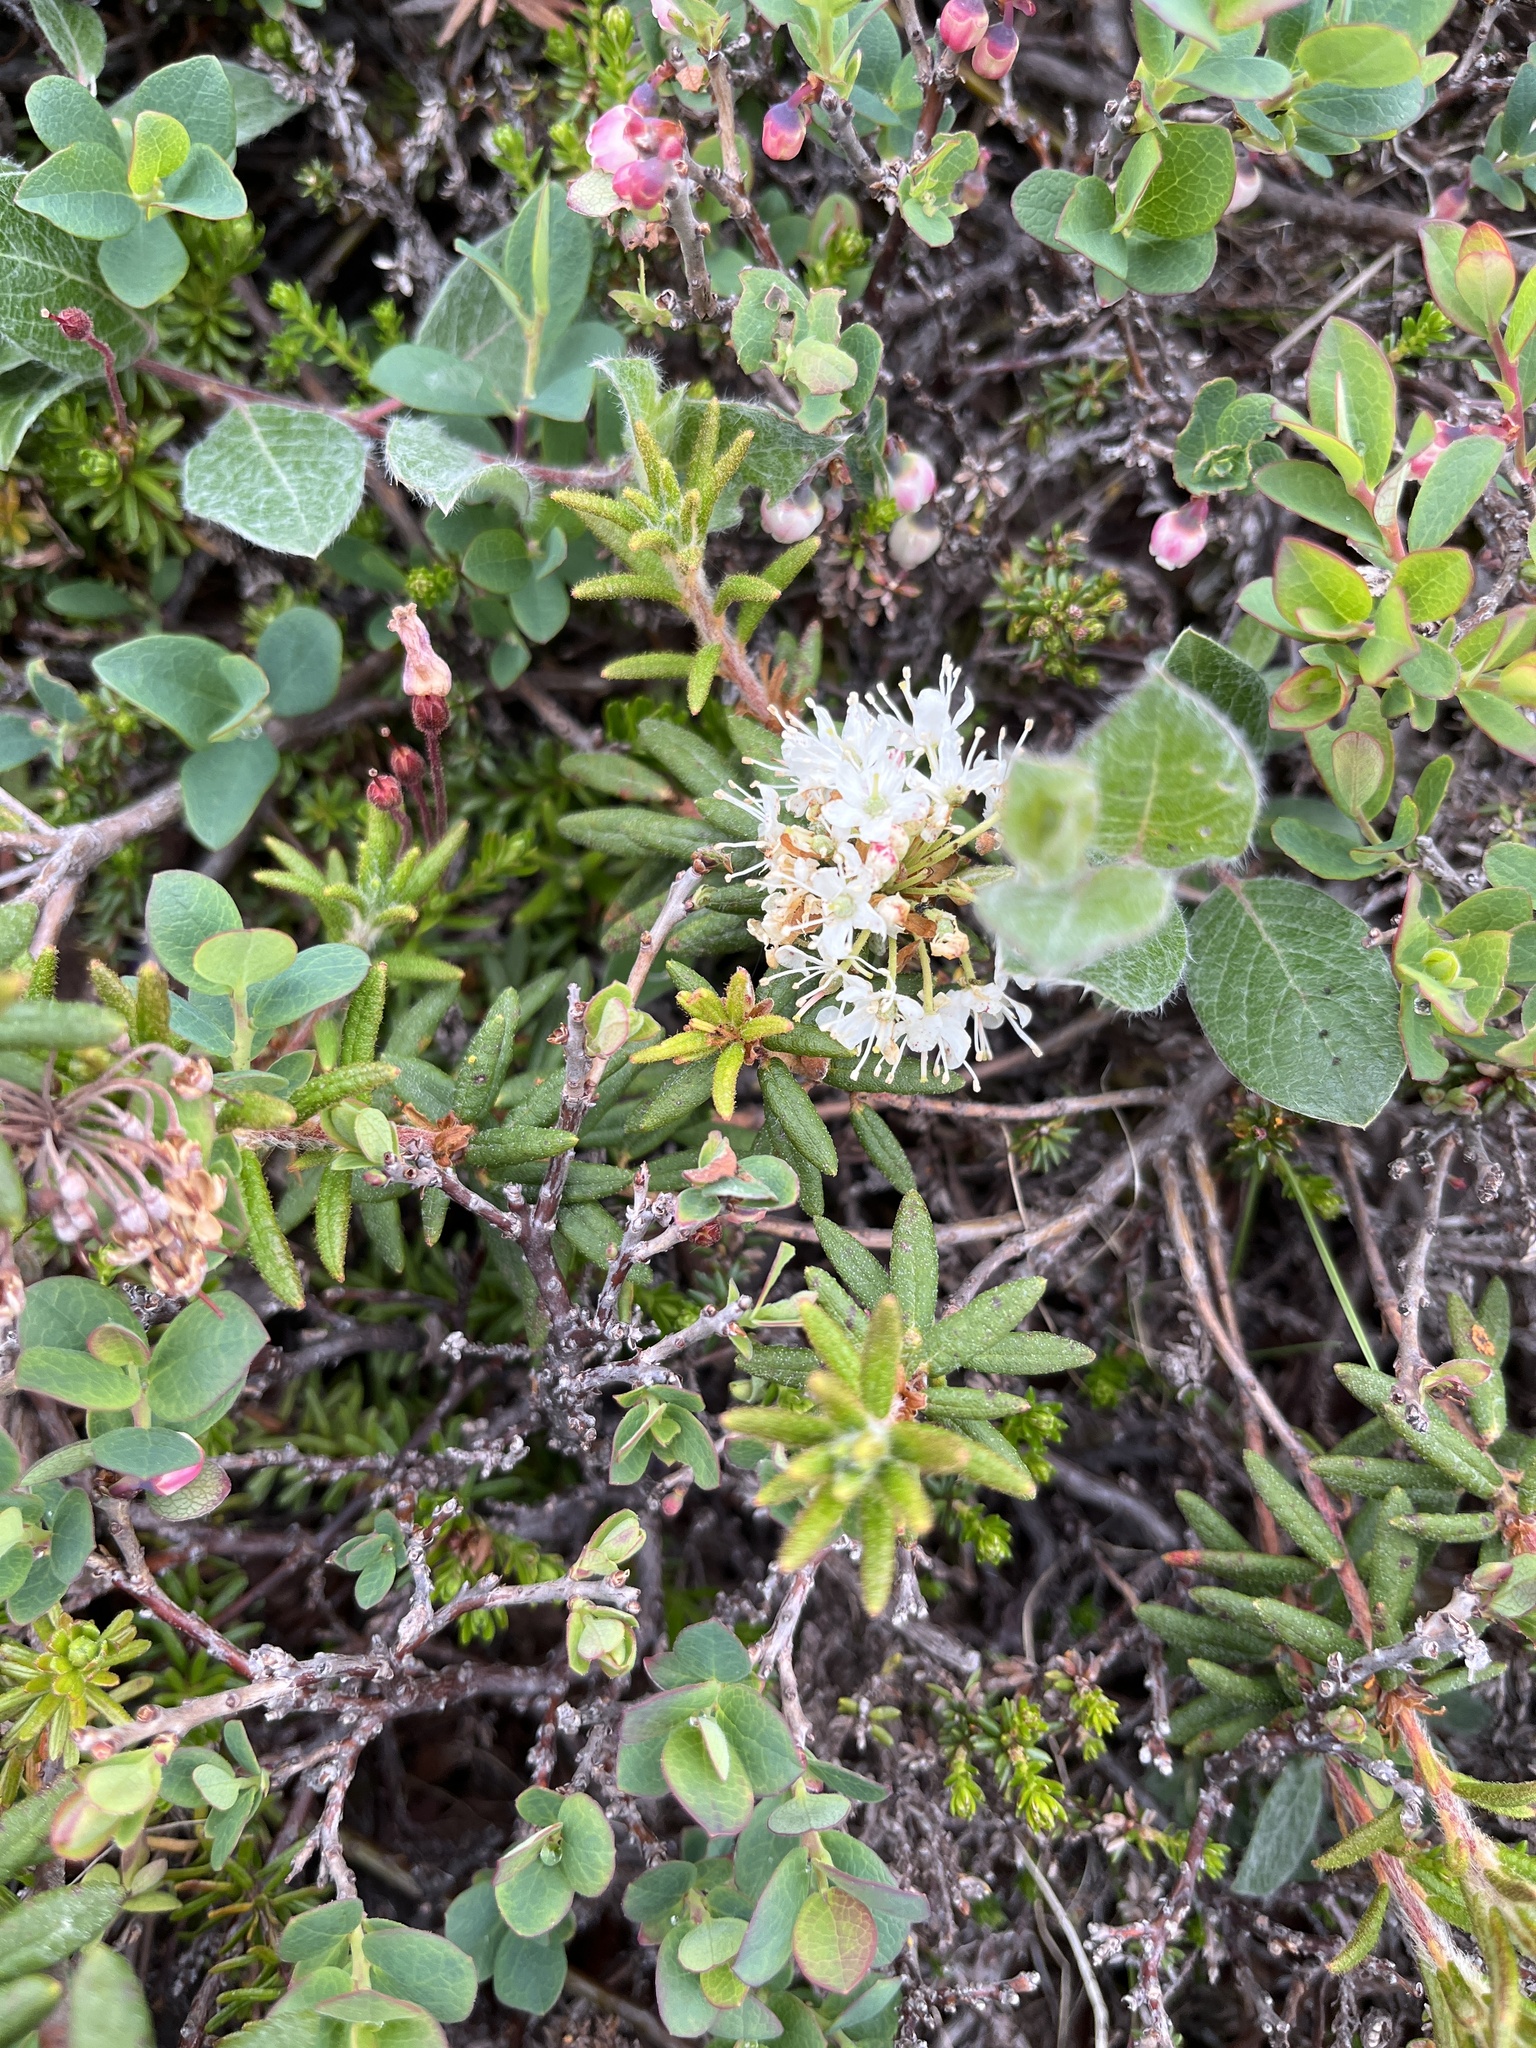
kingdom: Plantae
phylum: Tracheophyta
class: Magnoliopsida
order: Ericales
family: Ericaceae
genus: Rhododendron
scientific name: Rhododendron groenlandicum
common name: Bog labrador tea
